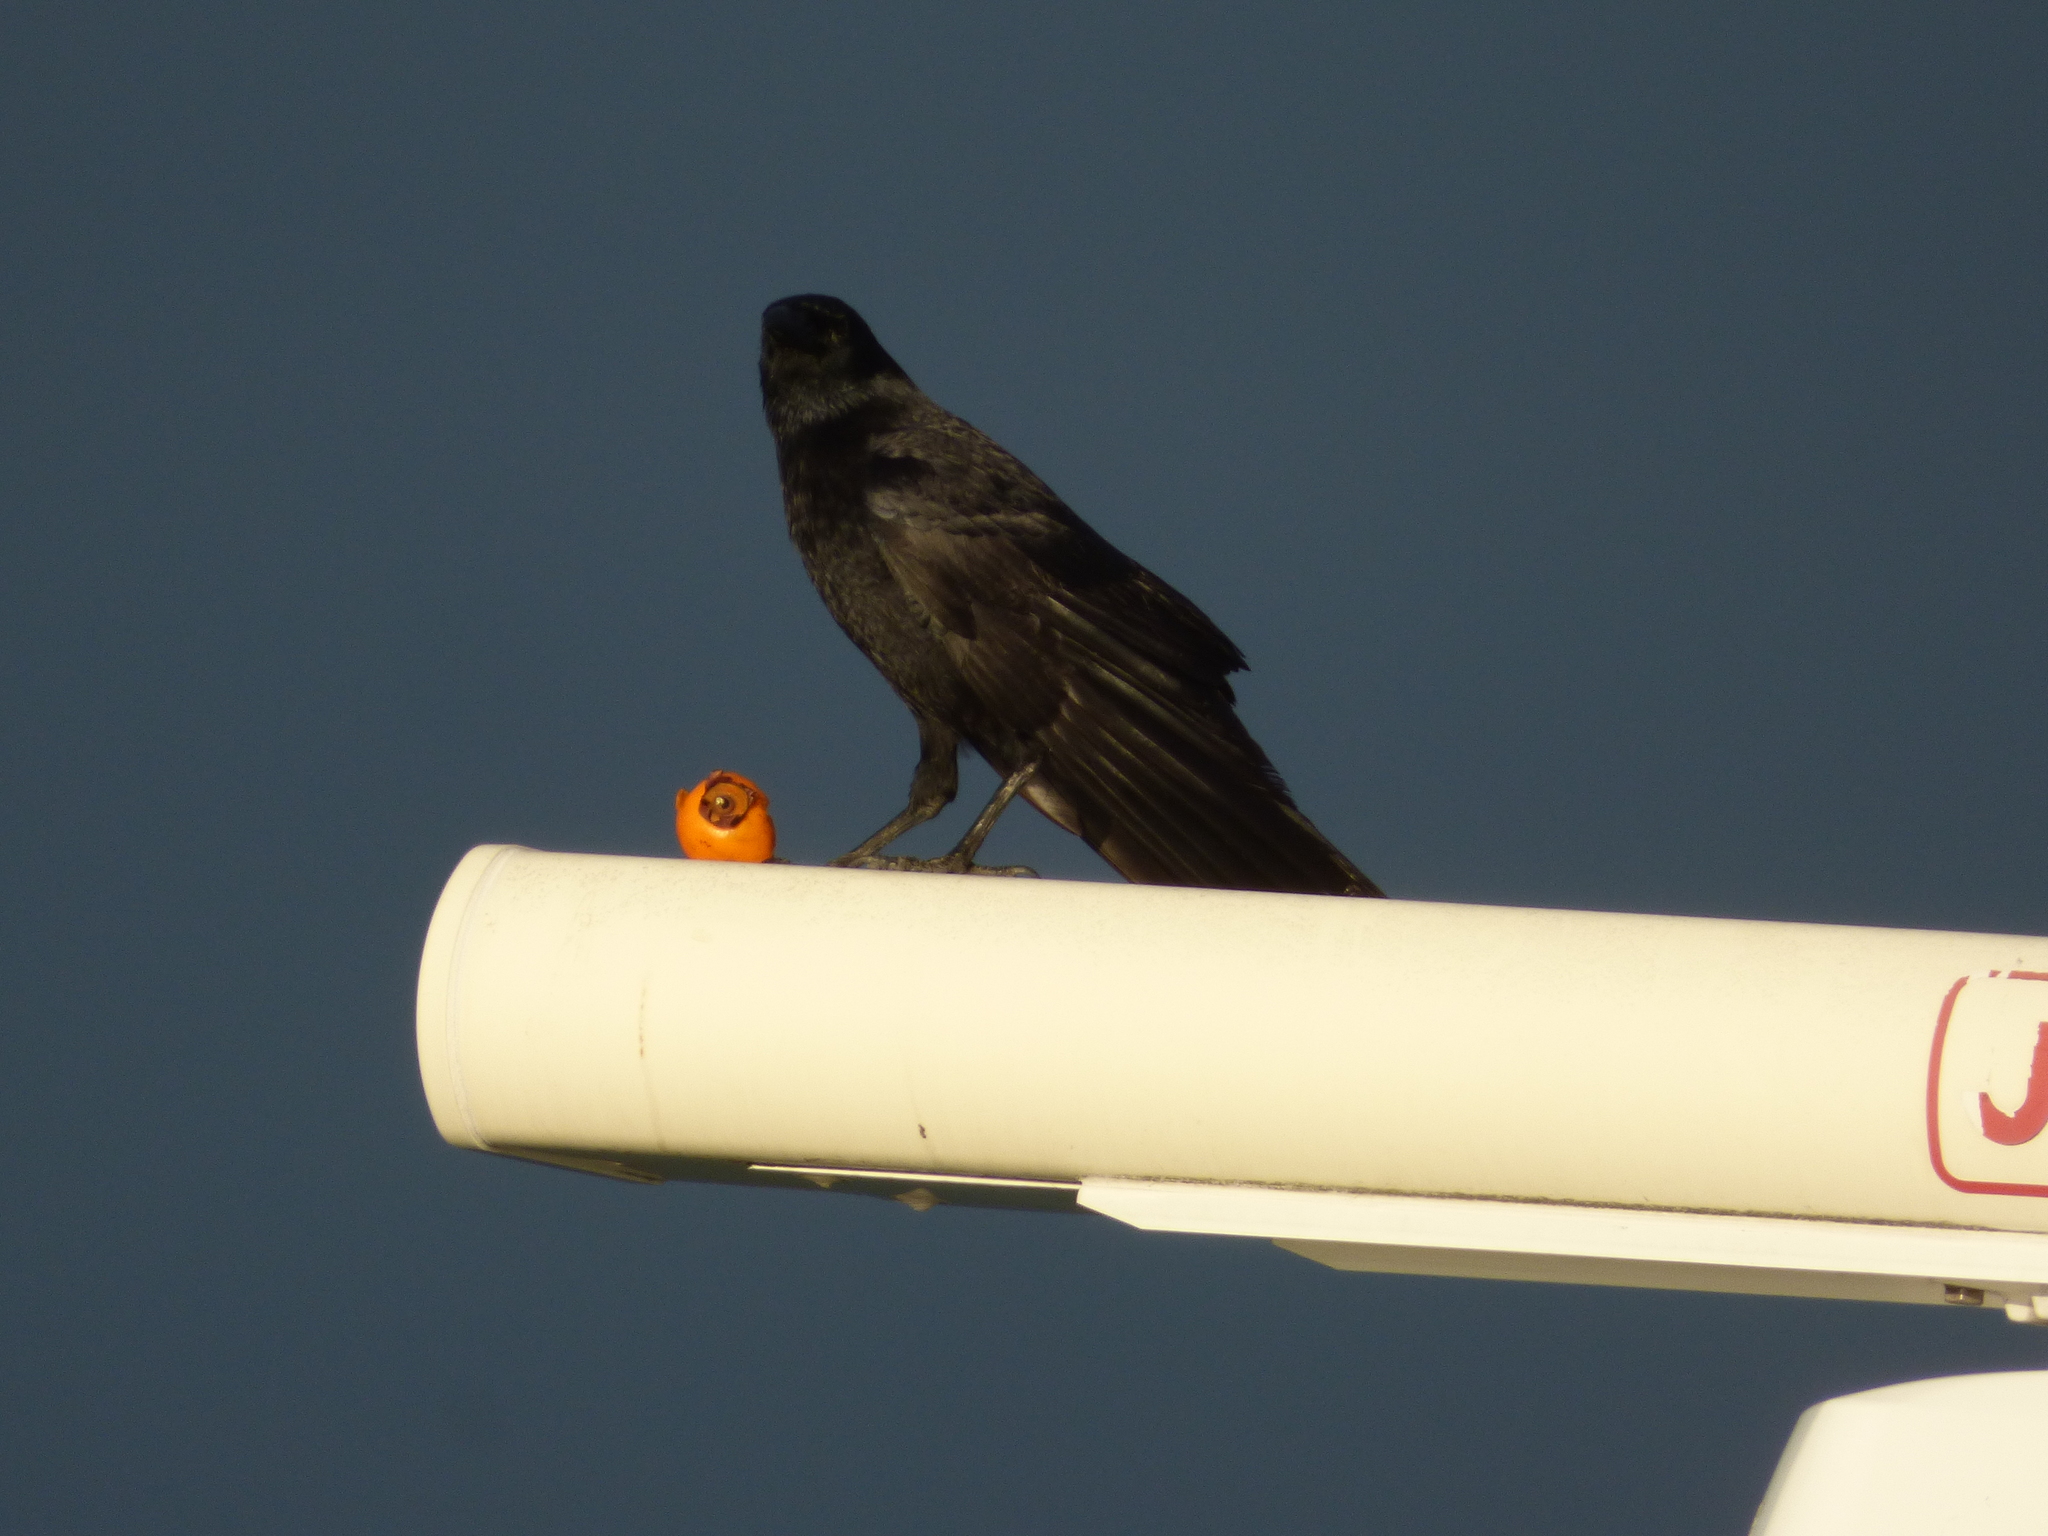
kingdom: Animalia
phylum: Chordata
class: Aves
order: Passeriformes
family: Corvidae
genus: Corvus
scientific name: Corvus corone
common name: Carrion crow
